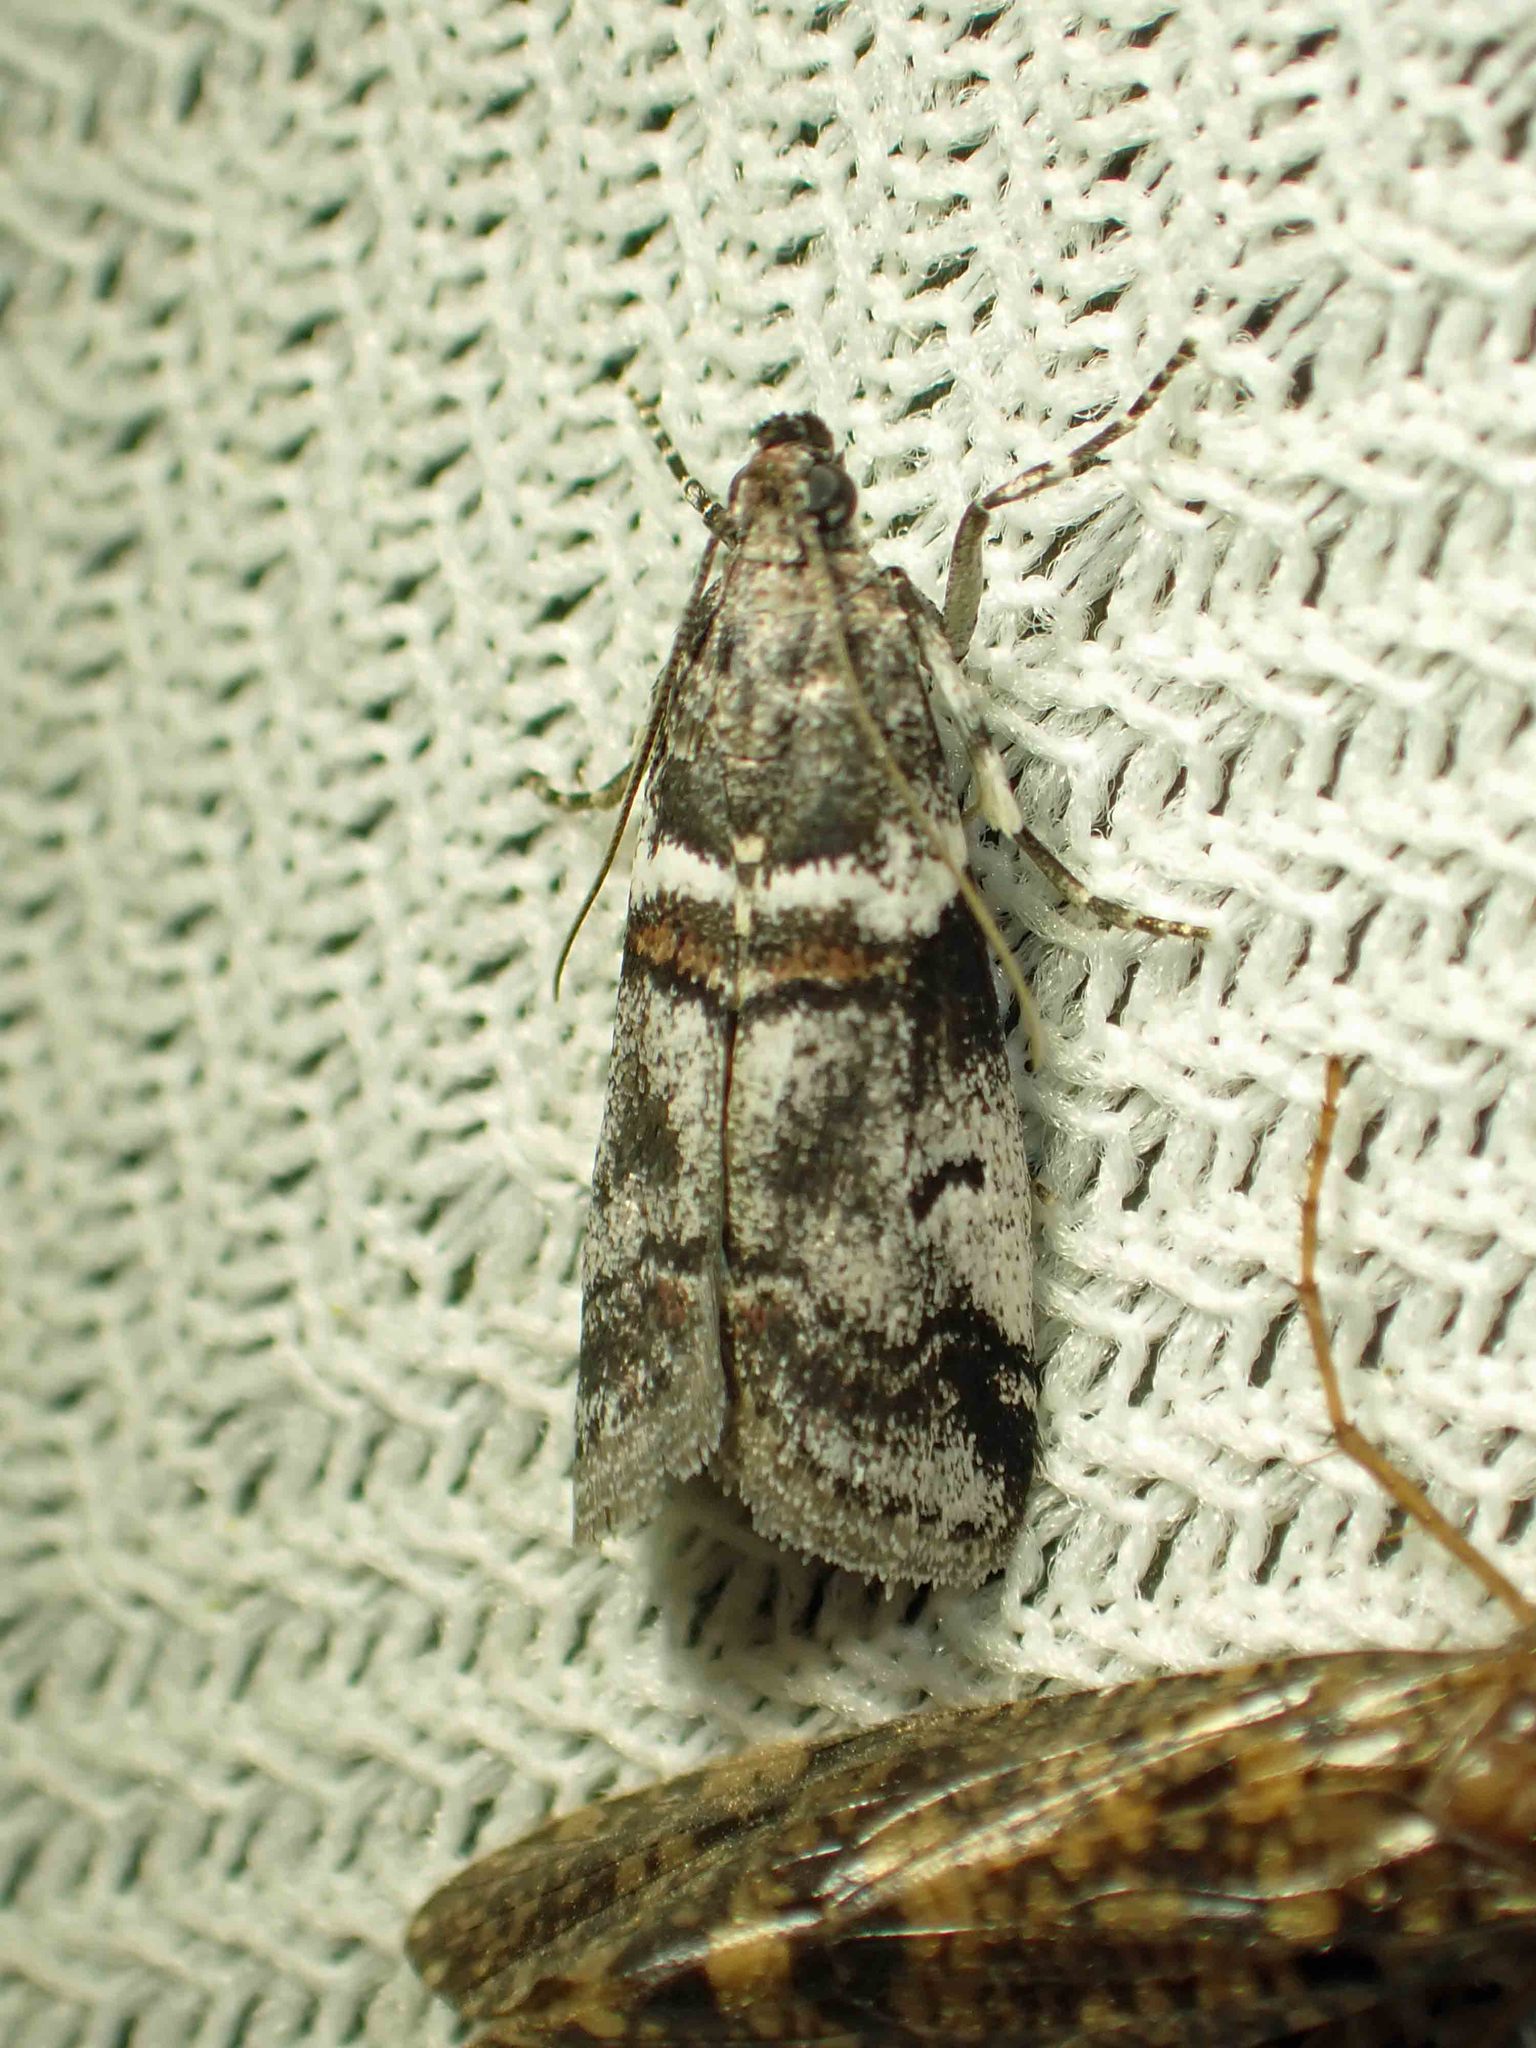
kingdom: Animalia
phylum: Arthropoda
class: Insecta
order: Lepidoptera
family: Pyralidae
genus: Acrobasis
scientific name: Acrobasis tricolorella
